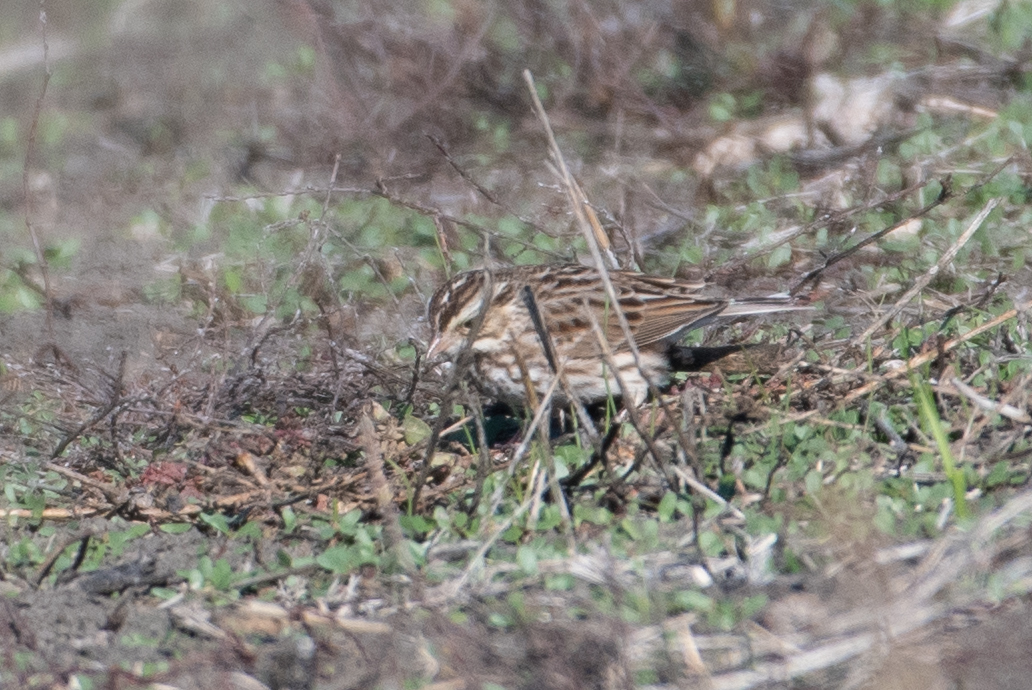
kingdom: Animalia
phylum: Chordata
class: Aves
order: Passeriformes
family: Passerellidae
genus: Passerculus
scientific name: Passerculus sandwichensis
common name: Savannah sparrow
